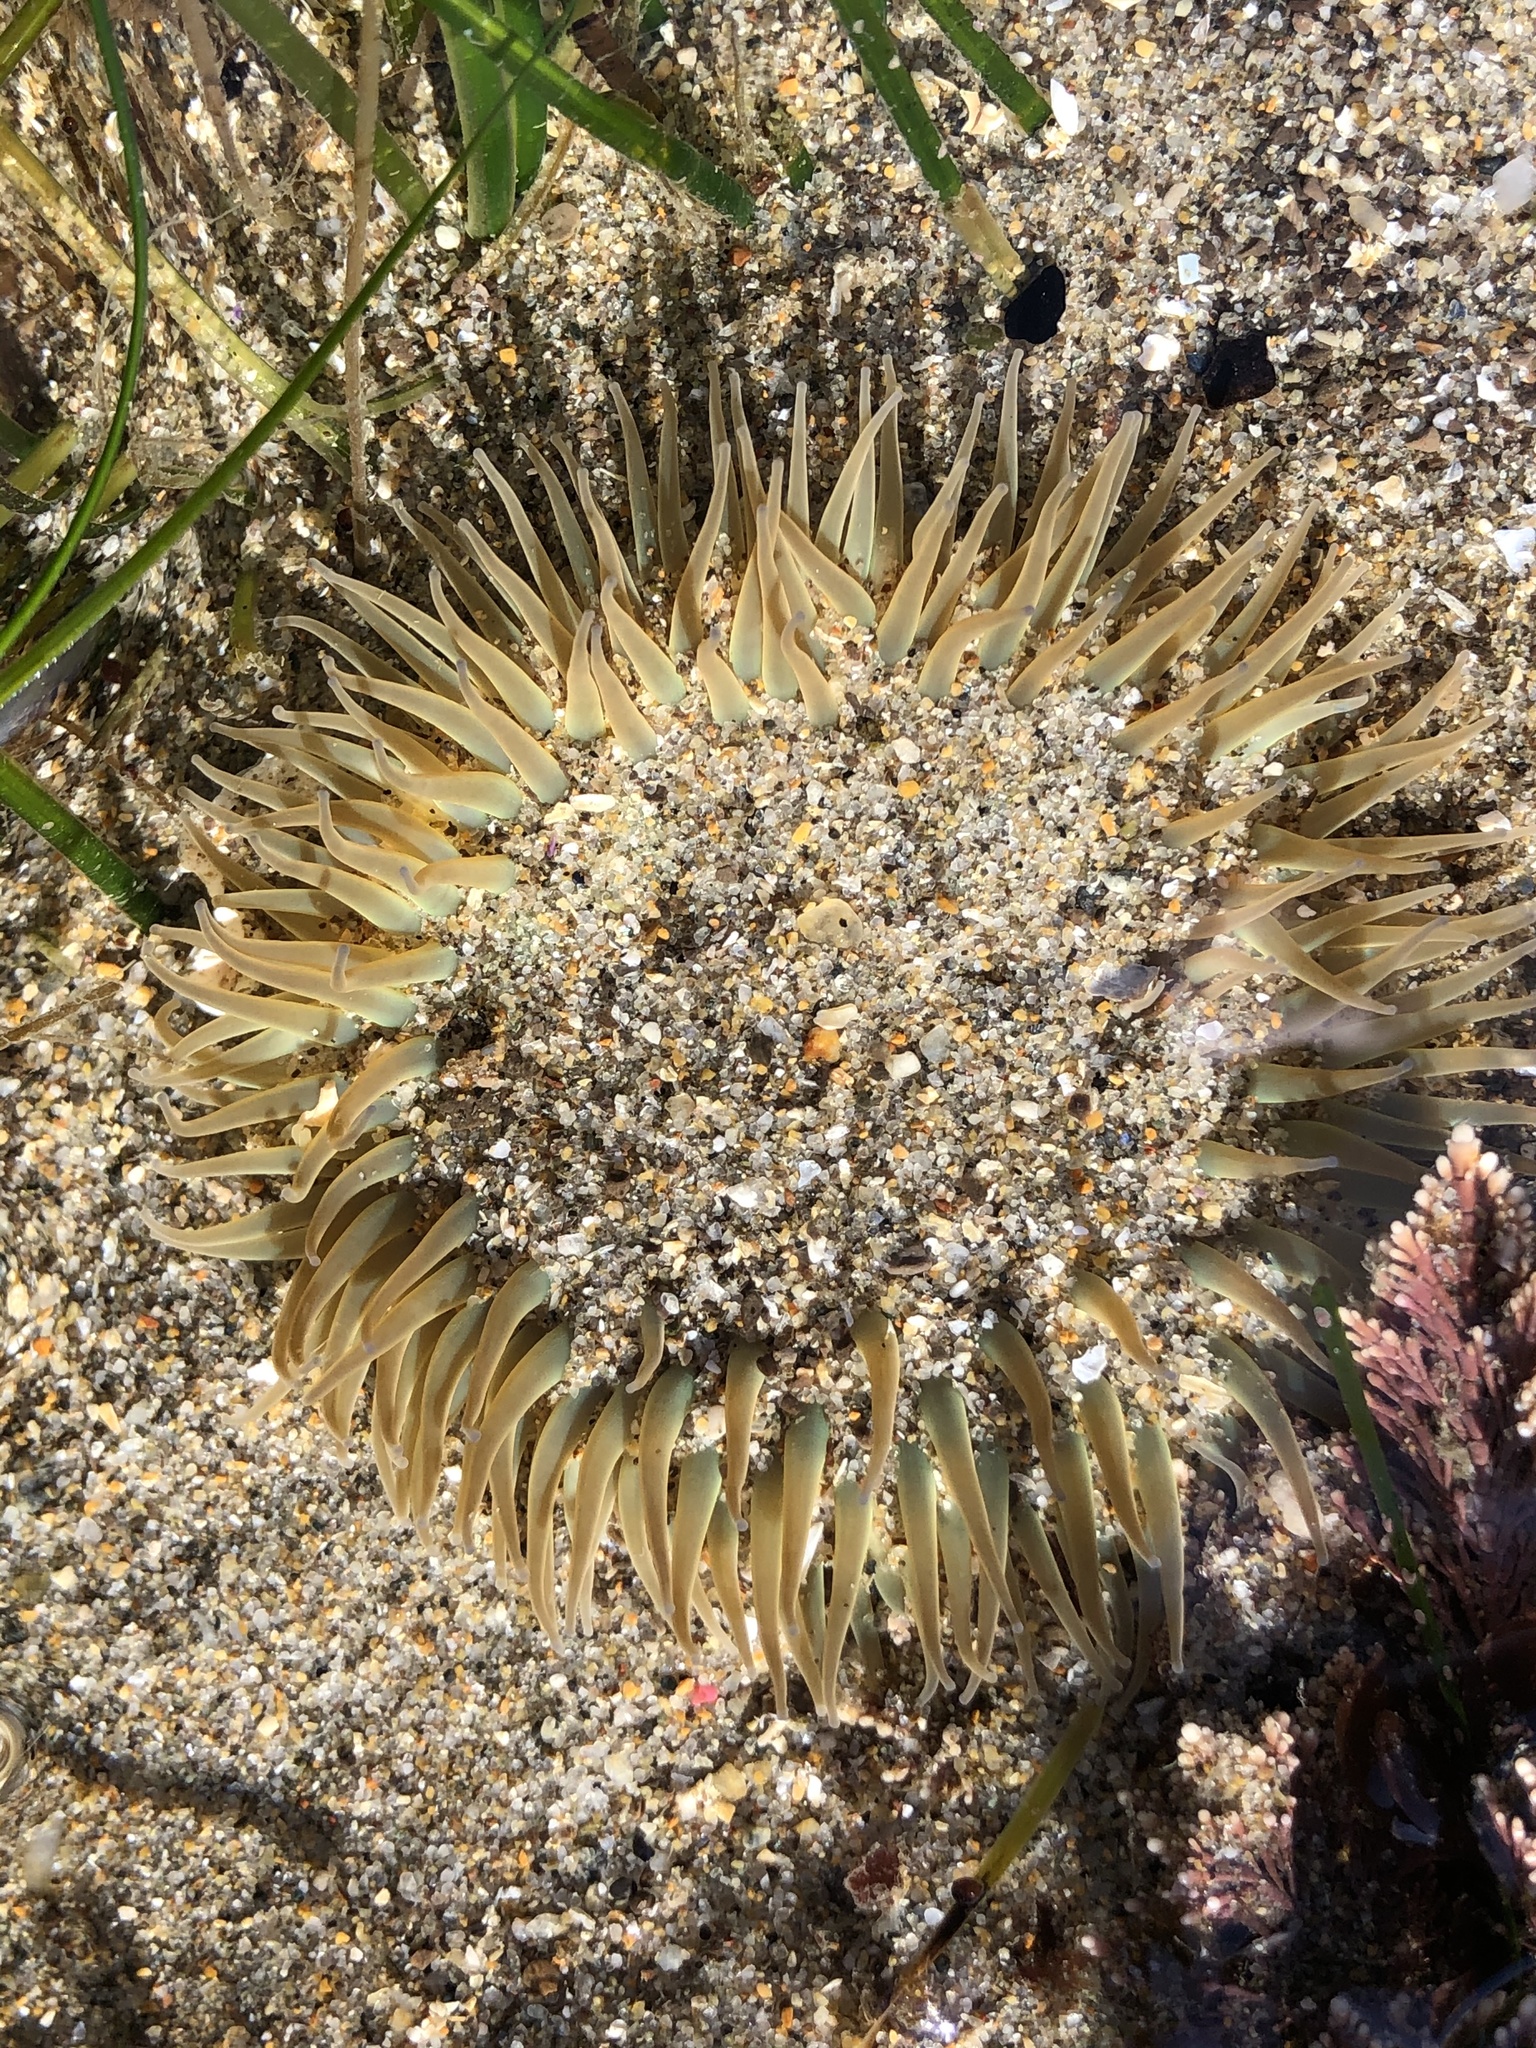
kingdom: Animalia
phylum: Cnidaria
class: Anthozoa
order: Actiniaria
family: Actiniidae
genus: Anthopleura
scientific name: Anthopleura sola
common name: Sun anemone
